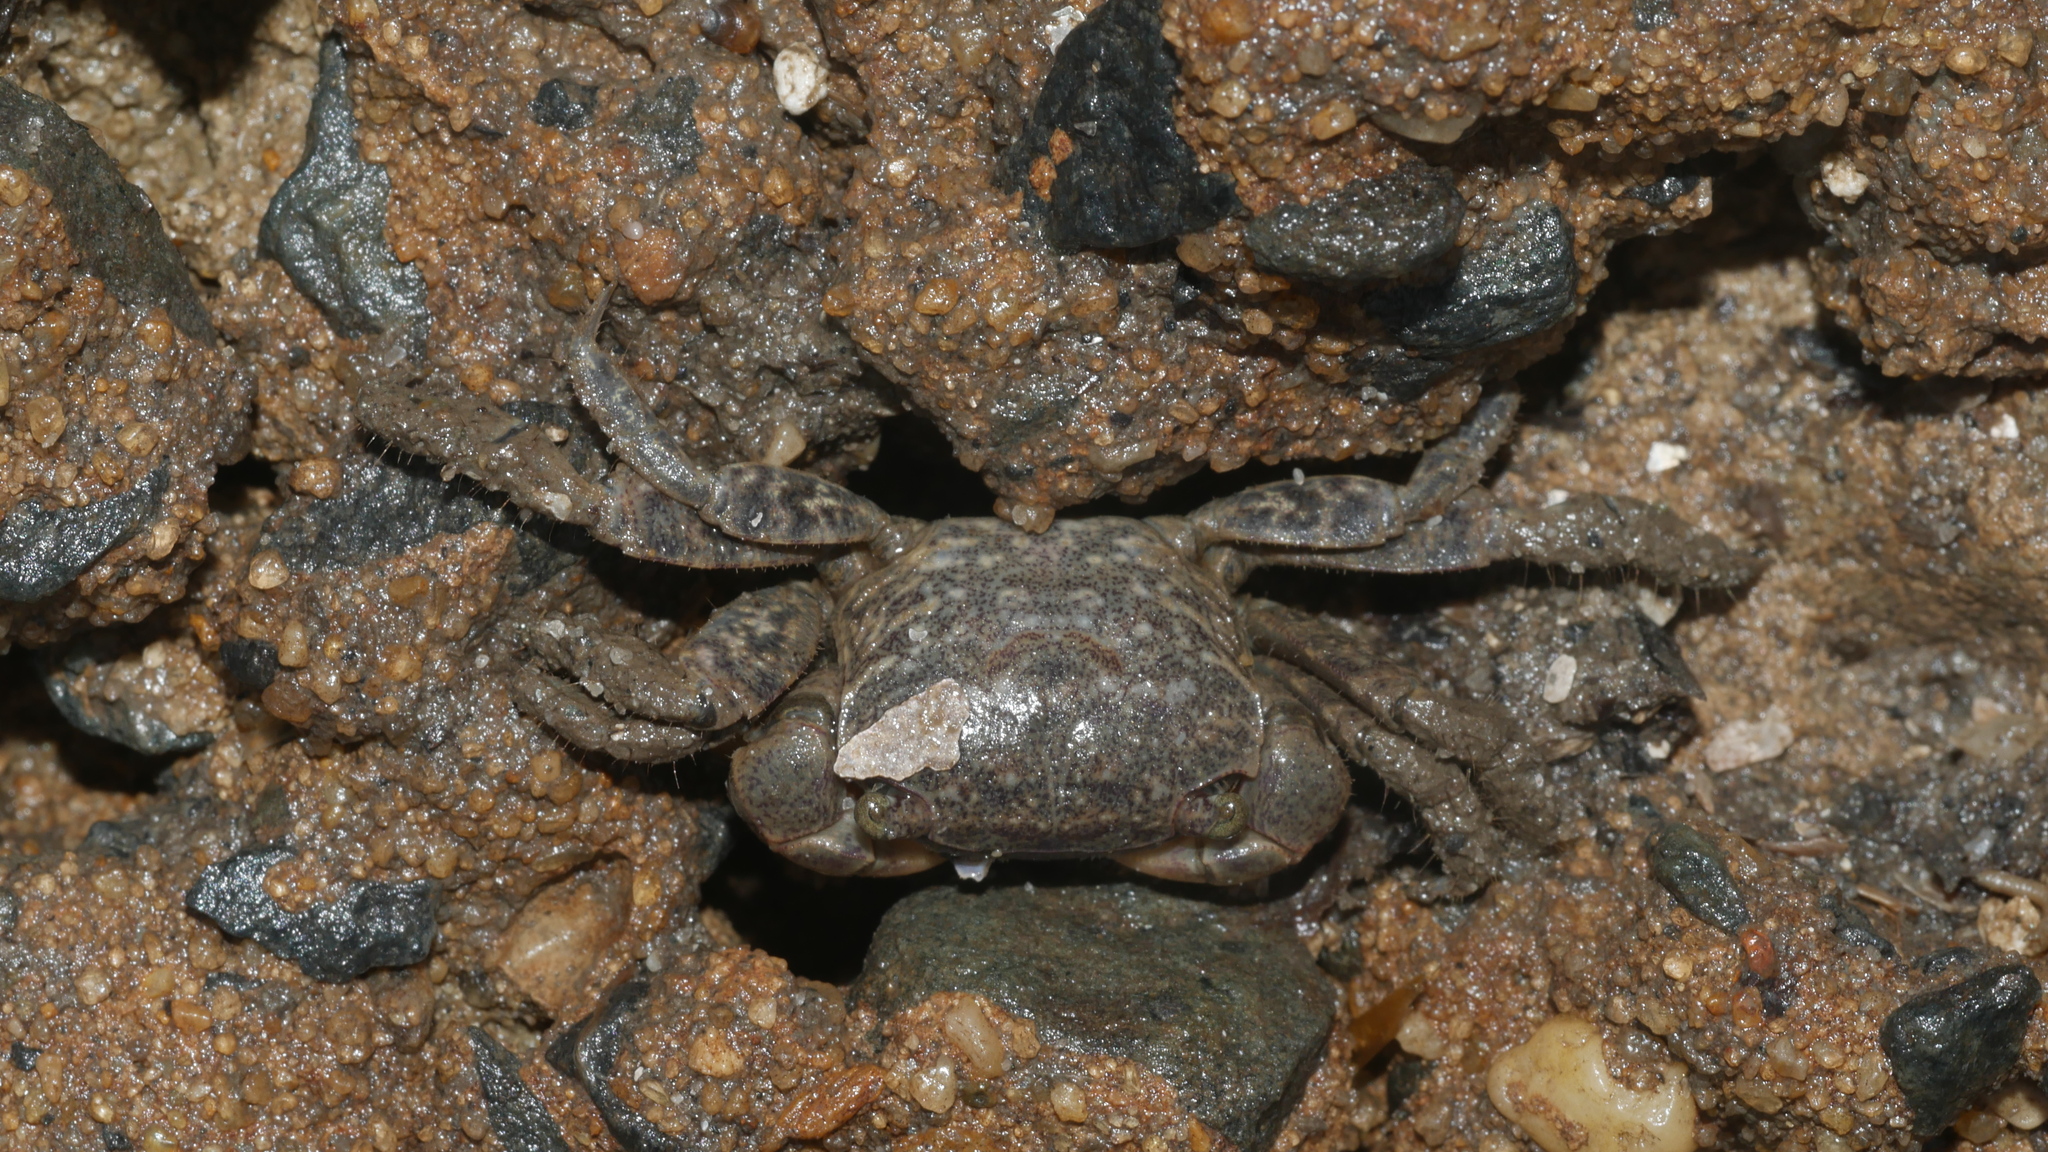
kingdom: Animalia
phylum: Arthropoda
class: Malacostraca
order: Decapoda
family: Sesarmidae
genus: Sesarma
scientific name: Sesarma reticulatum
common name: Heavy marsh crab
